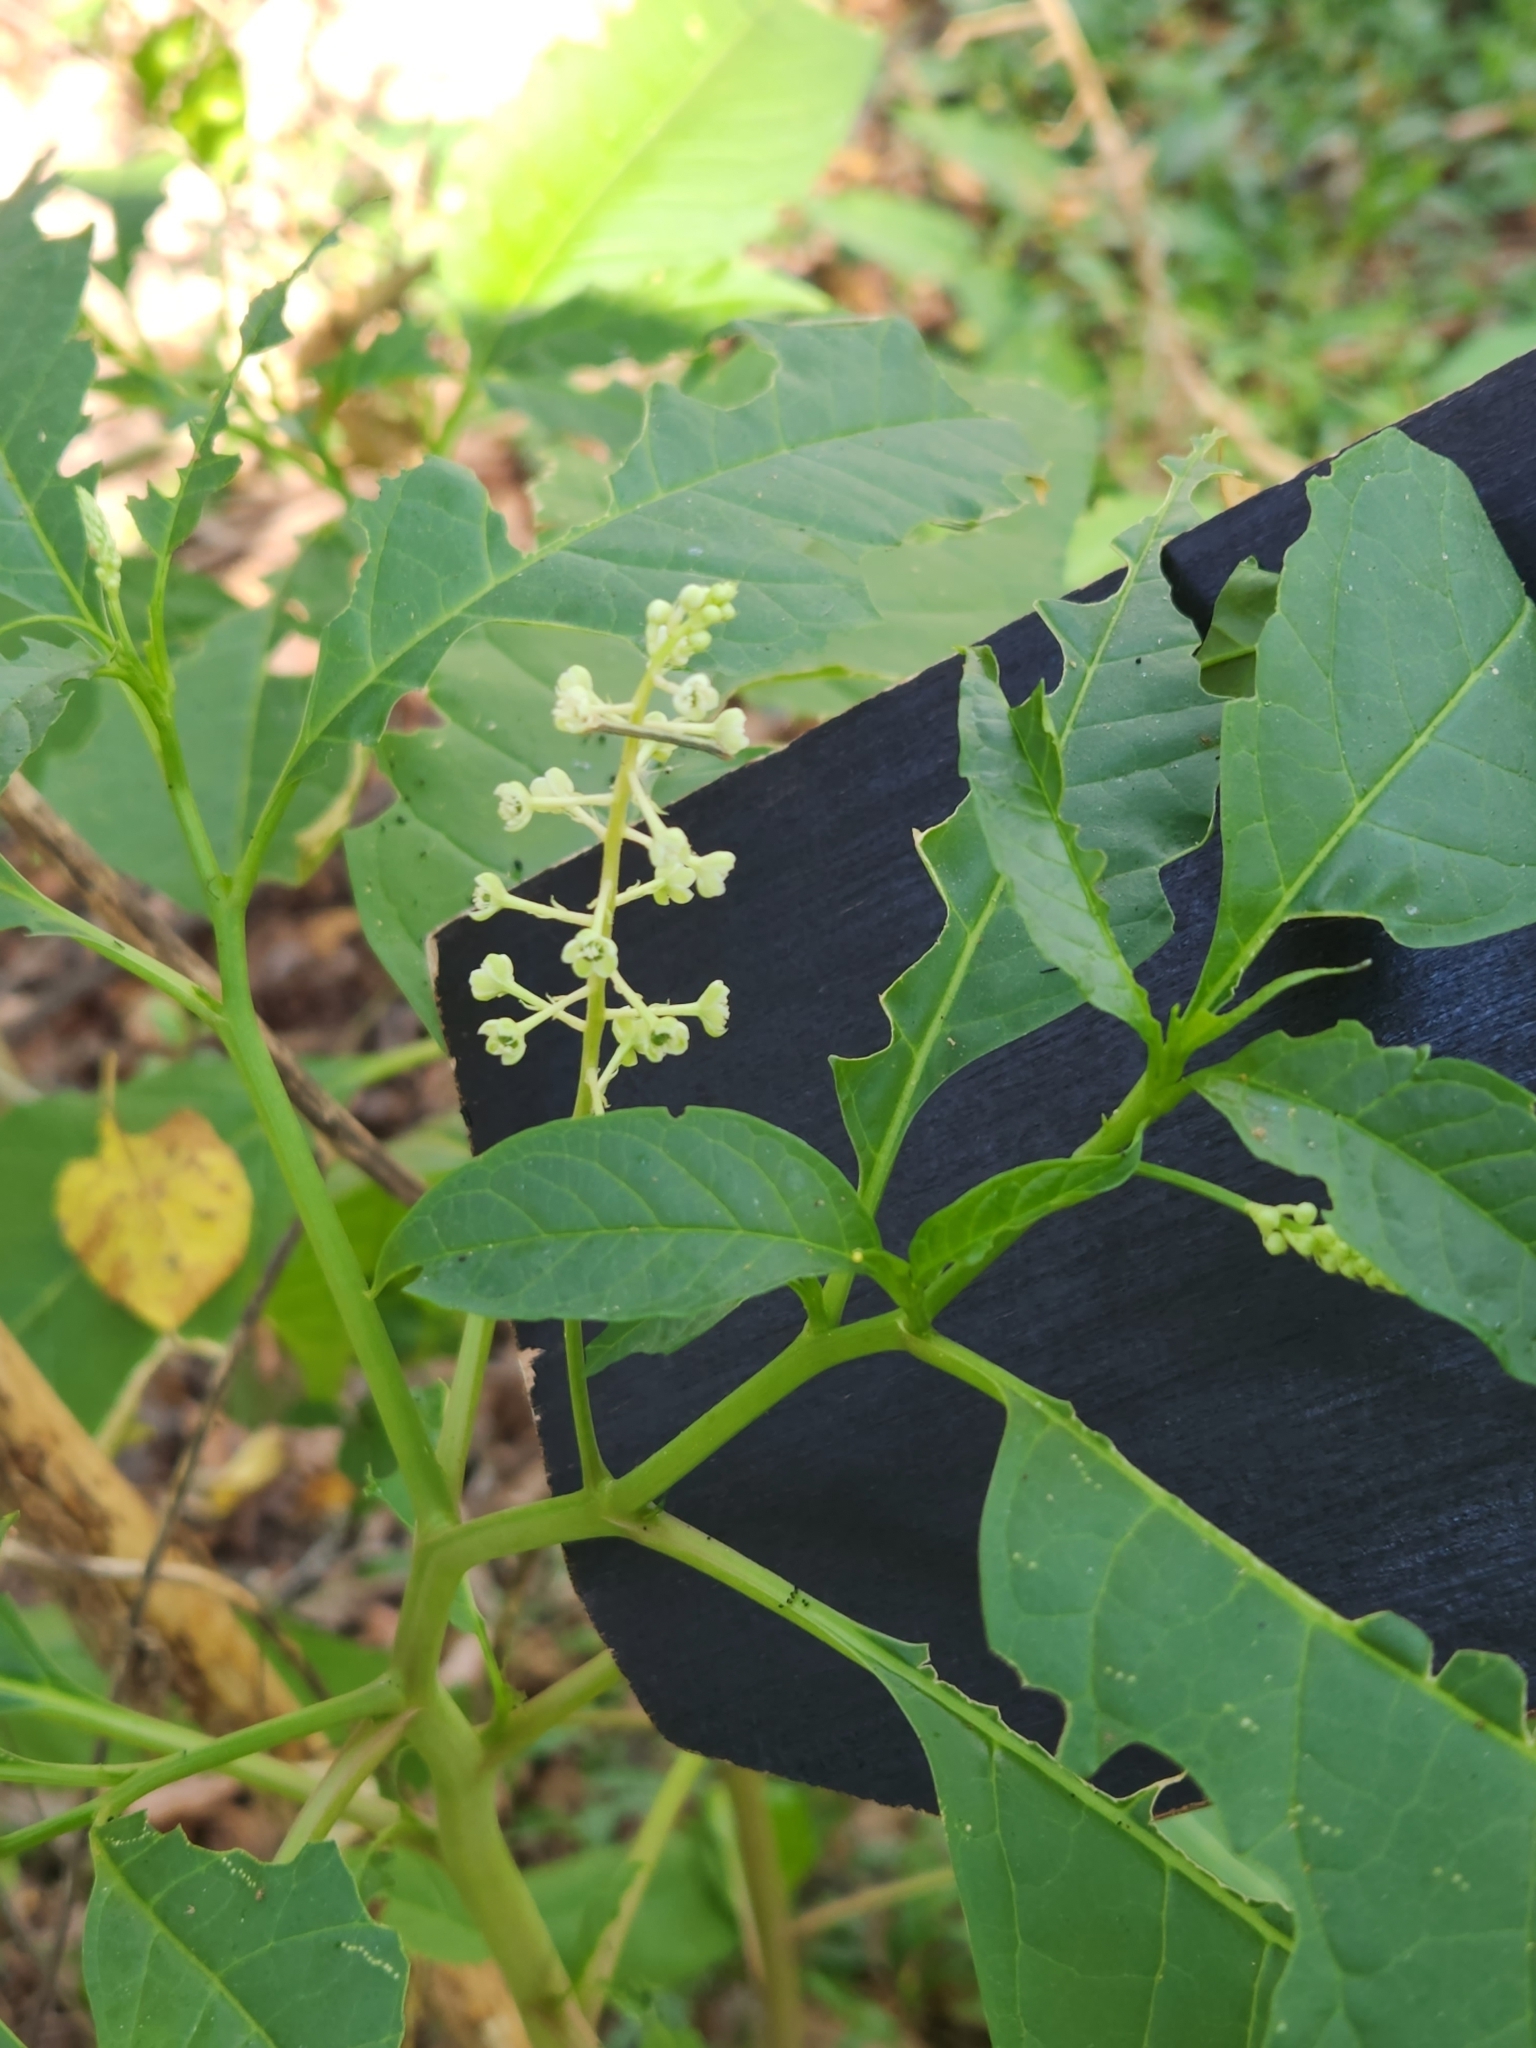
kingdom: Plantae
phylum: Tracheophyta
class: Magnoliopsida
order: Caryophyllales
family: Phytolaccaceae
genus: Phytolacca
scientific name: Phytolacca americana
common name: American pokeweed
